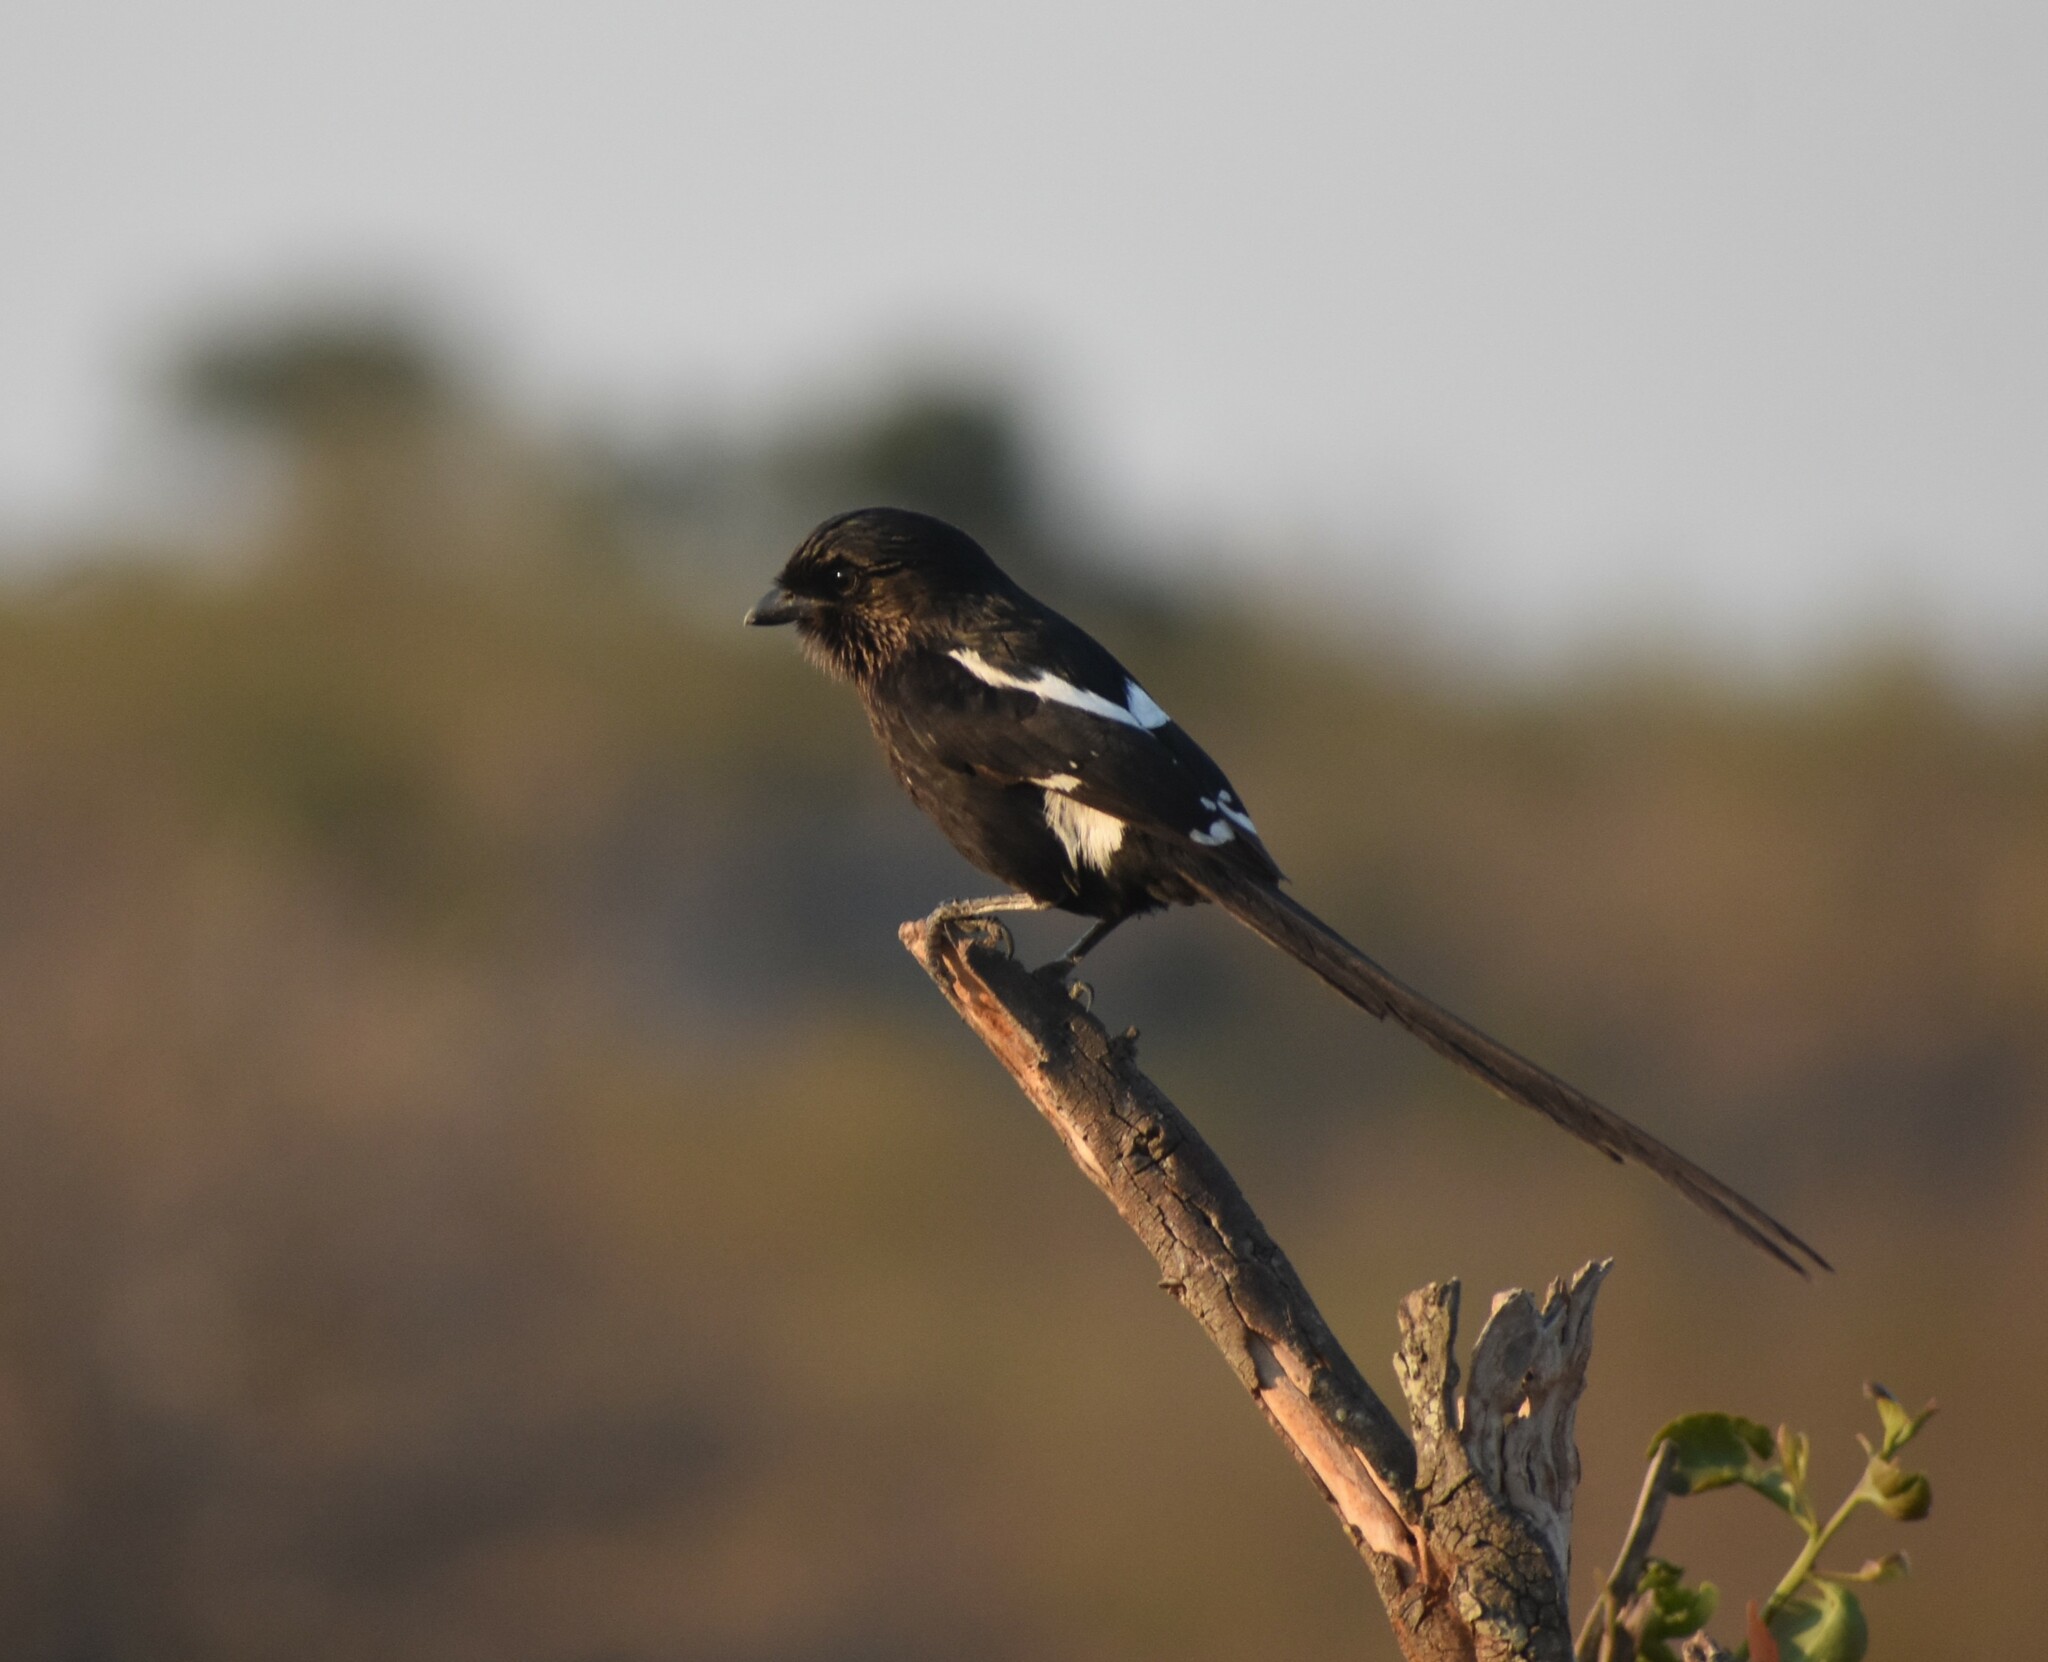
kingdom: Animalia
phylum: Chordata
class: Aves
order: Passeriformes
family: Laniidae
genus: Urolestes
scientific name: Urolestes melanoleucus
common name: Magpie shrike
